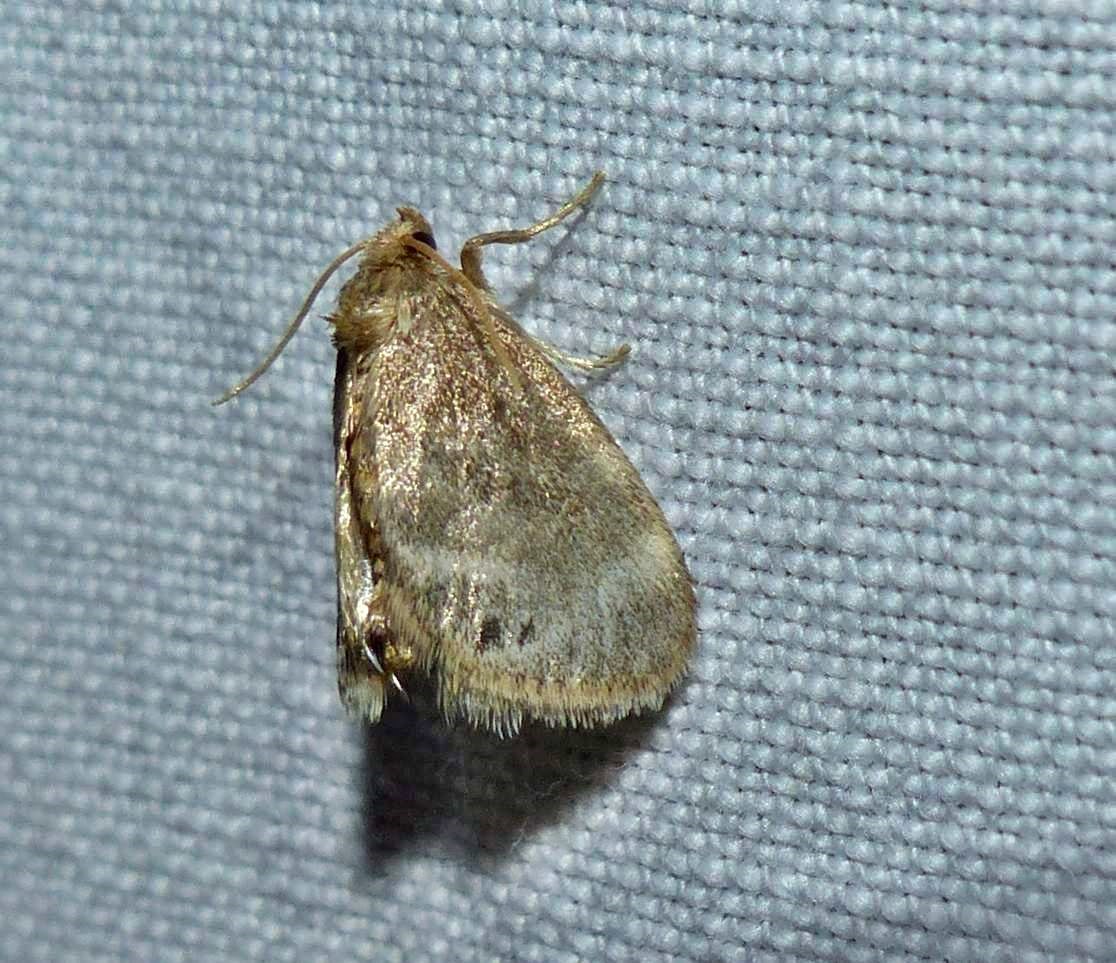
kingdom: Animalia
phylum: Arthropoda
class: Insecta
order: Lepidoptera
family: Limacodidae
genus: Packardia
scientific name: Packardia elegans
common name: Elegant tailed slug moth
